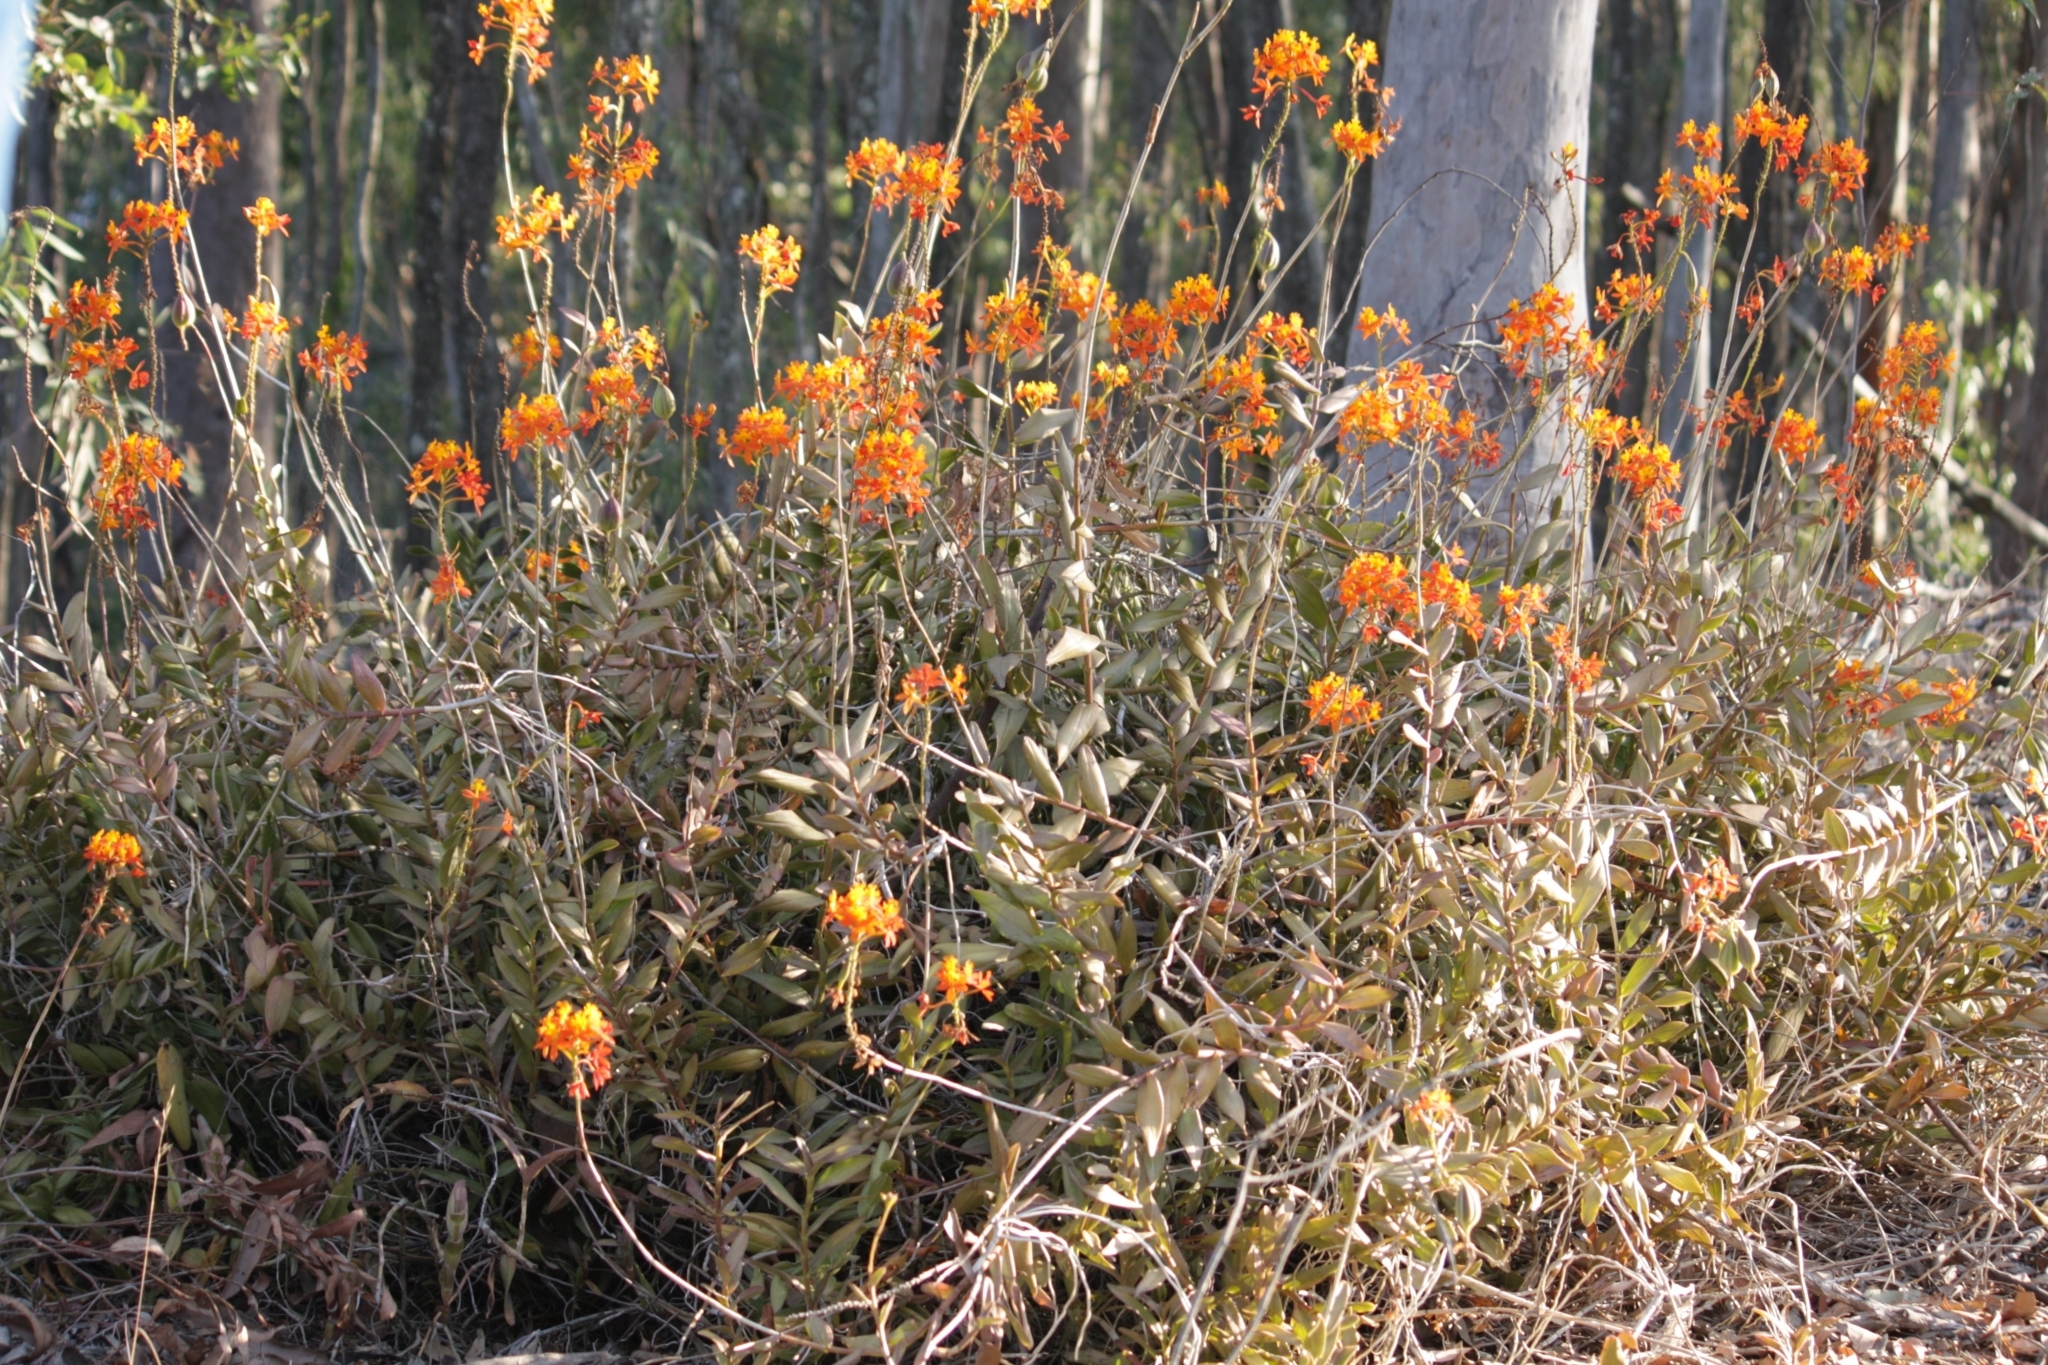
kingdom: Plantae
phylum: Tracheophyta
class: Liliopsida
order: Asparagales
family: Orchidaceae
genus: Epidendrum
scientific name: Epidendrum radicans
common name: Fire star orchid
